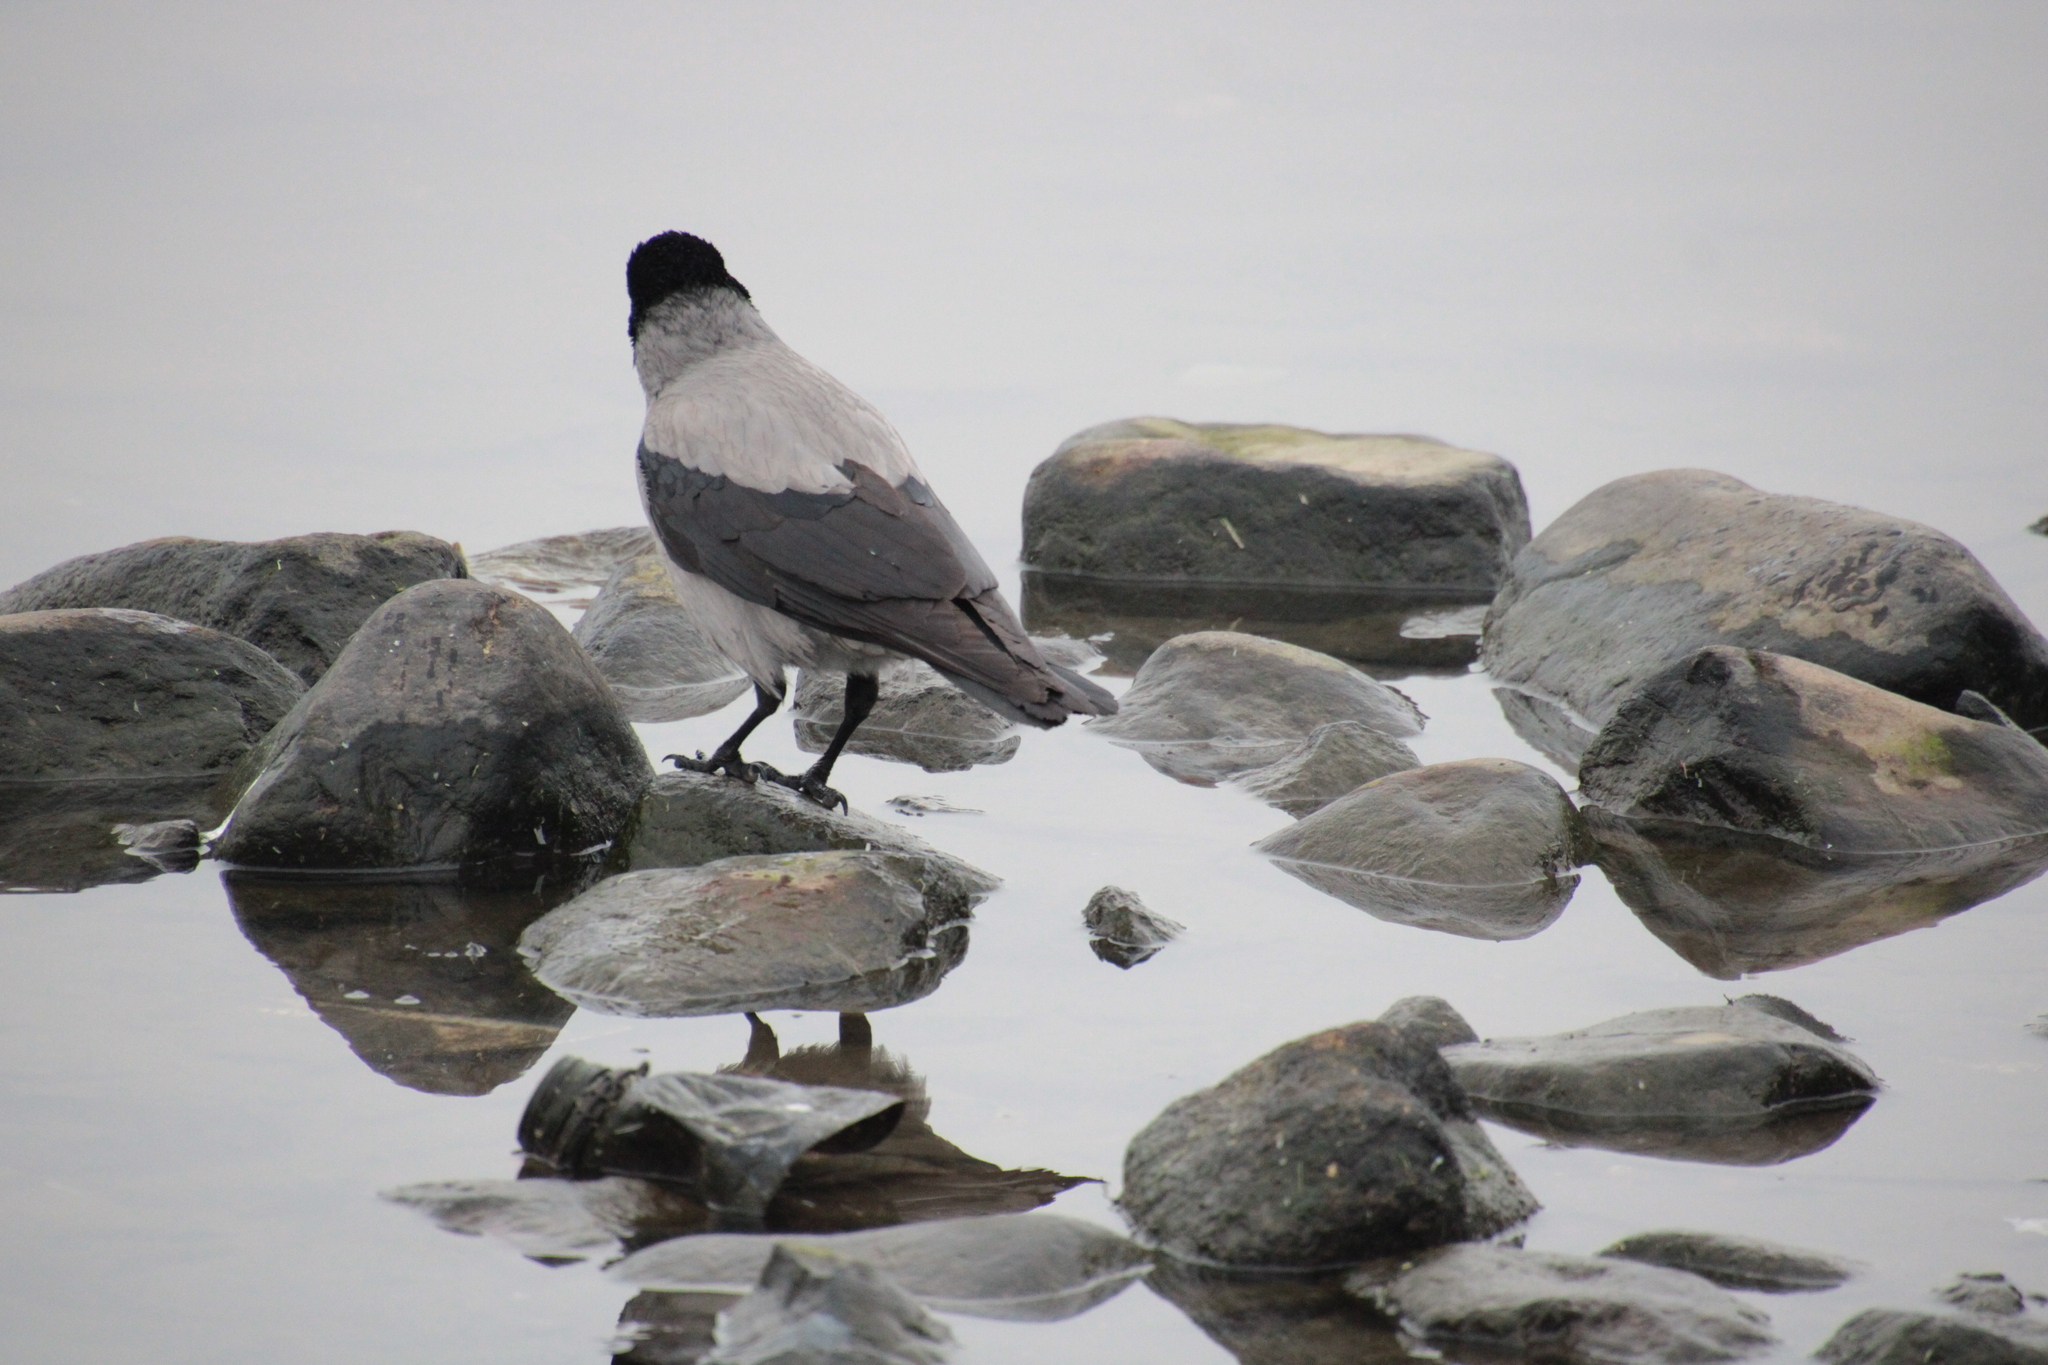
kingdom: Animalia
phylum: Chordata
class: Aves
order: Passeriformes
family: Corvidae
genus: Corvus
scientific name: Corvus cornix
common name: Hooded crow
